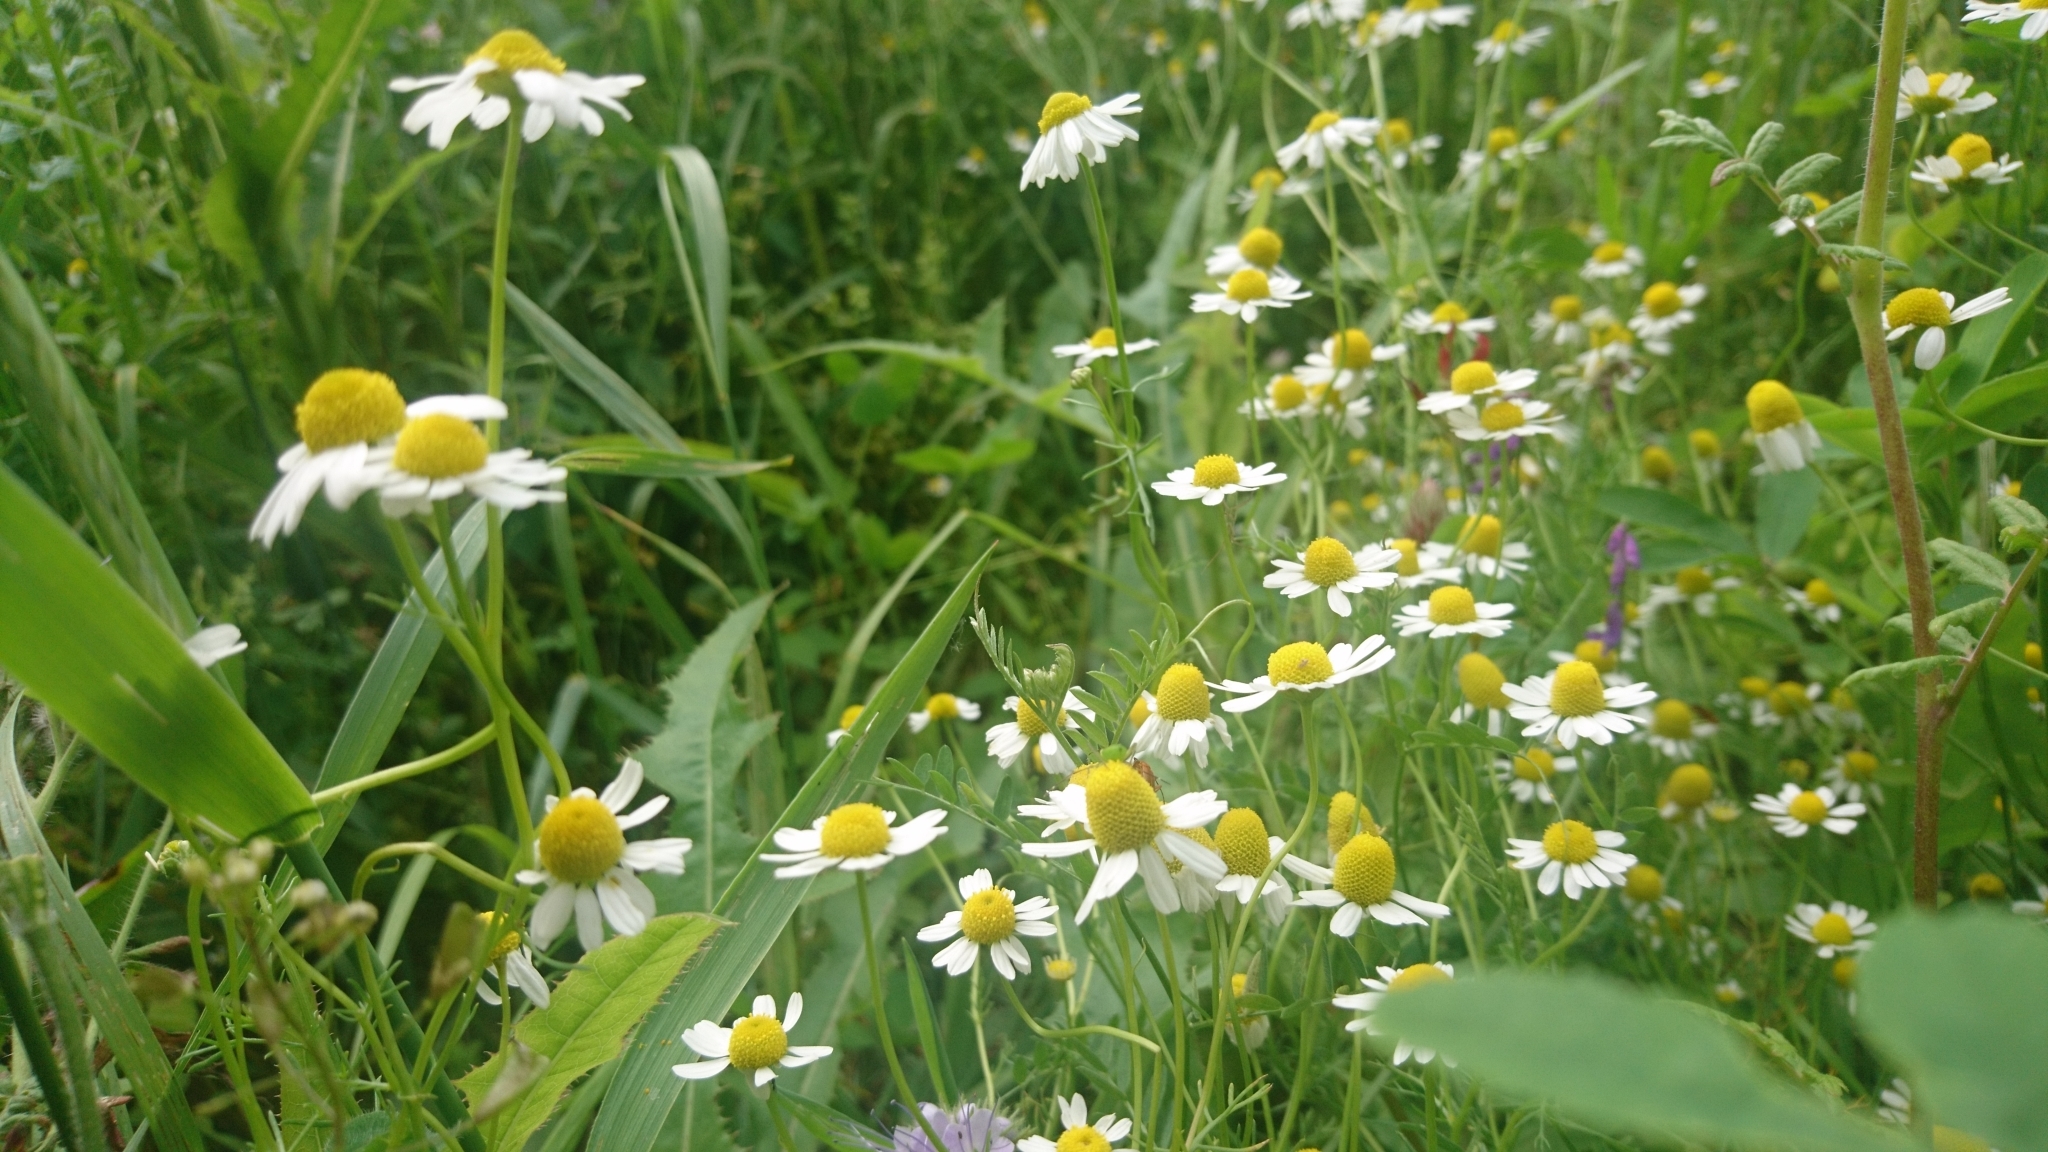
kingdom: Plantae
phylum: Tracheophyta
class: Magnoliopsida
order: Asterales
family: Asteraceae
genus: Matricaria
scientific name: Matricaria chamomilla
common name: Scented mayweed
